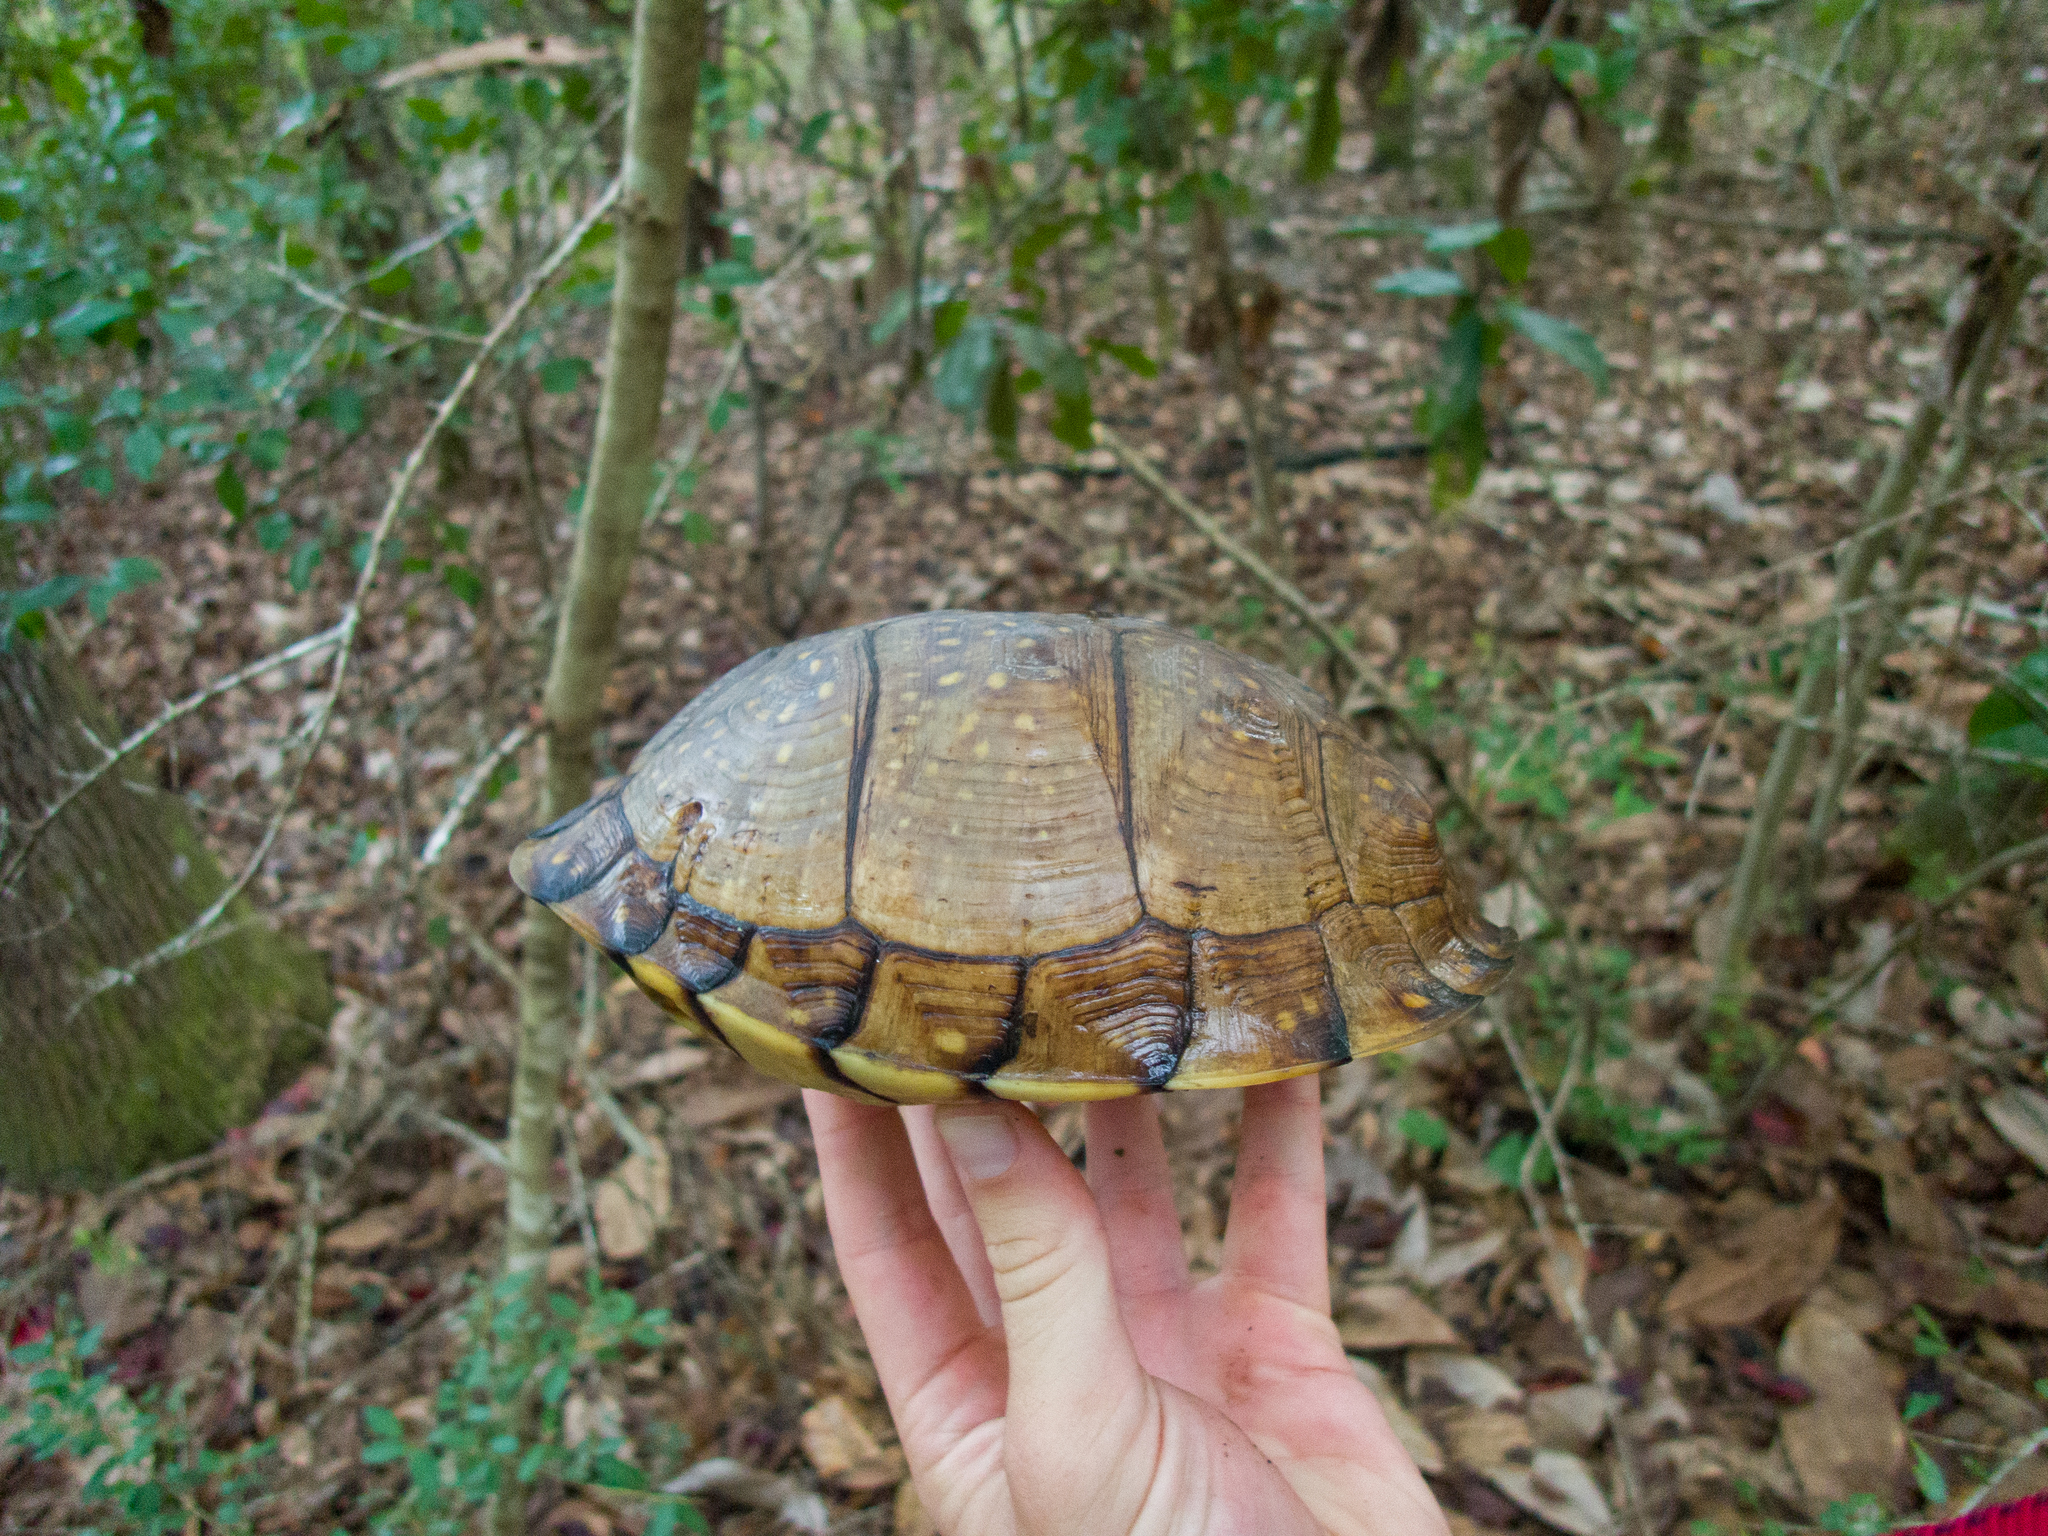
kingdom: Animalia
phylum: Chordata
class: Testudines
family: Emydidae
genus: Terrapene
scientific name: Terrapene carolina
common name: Common box turtle
